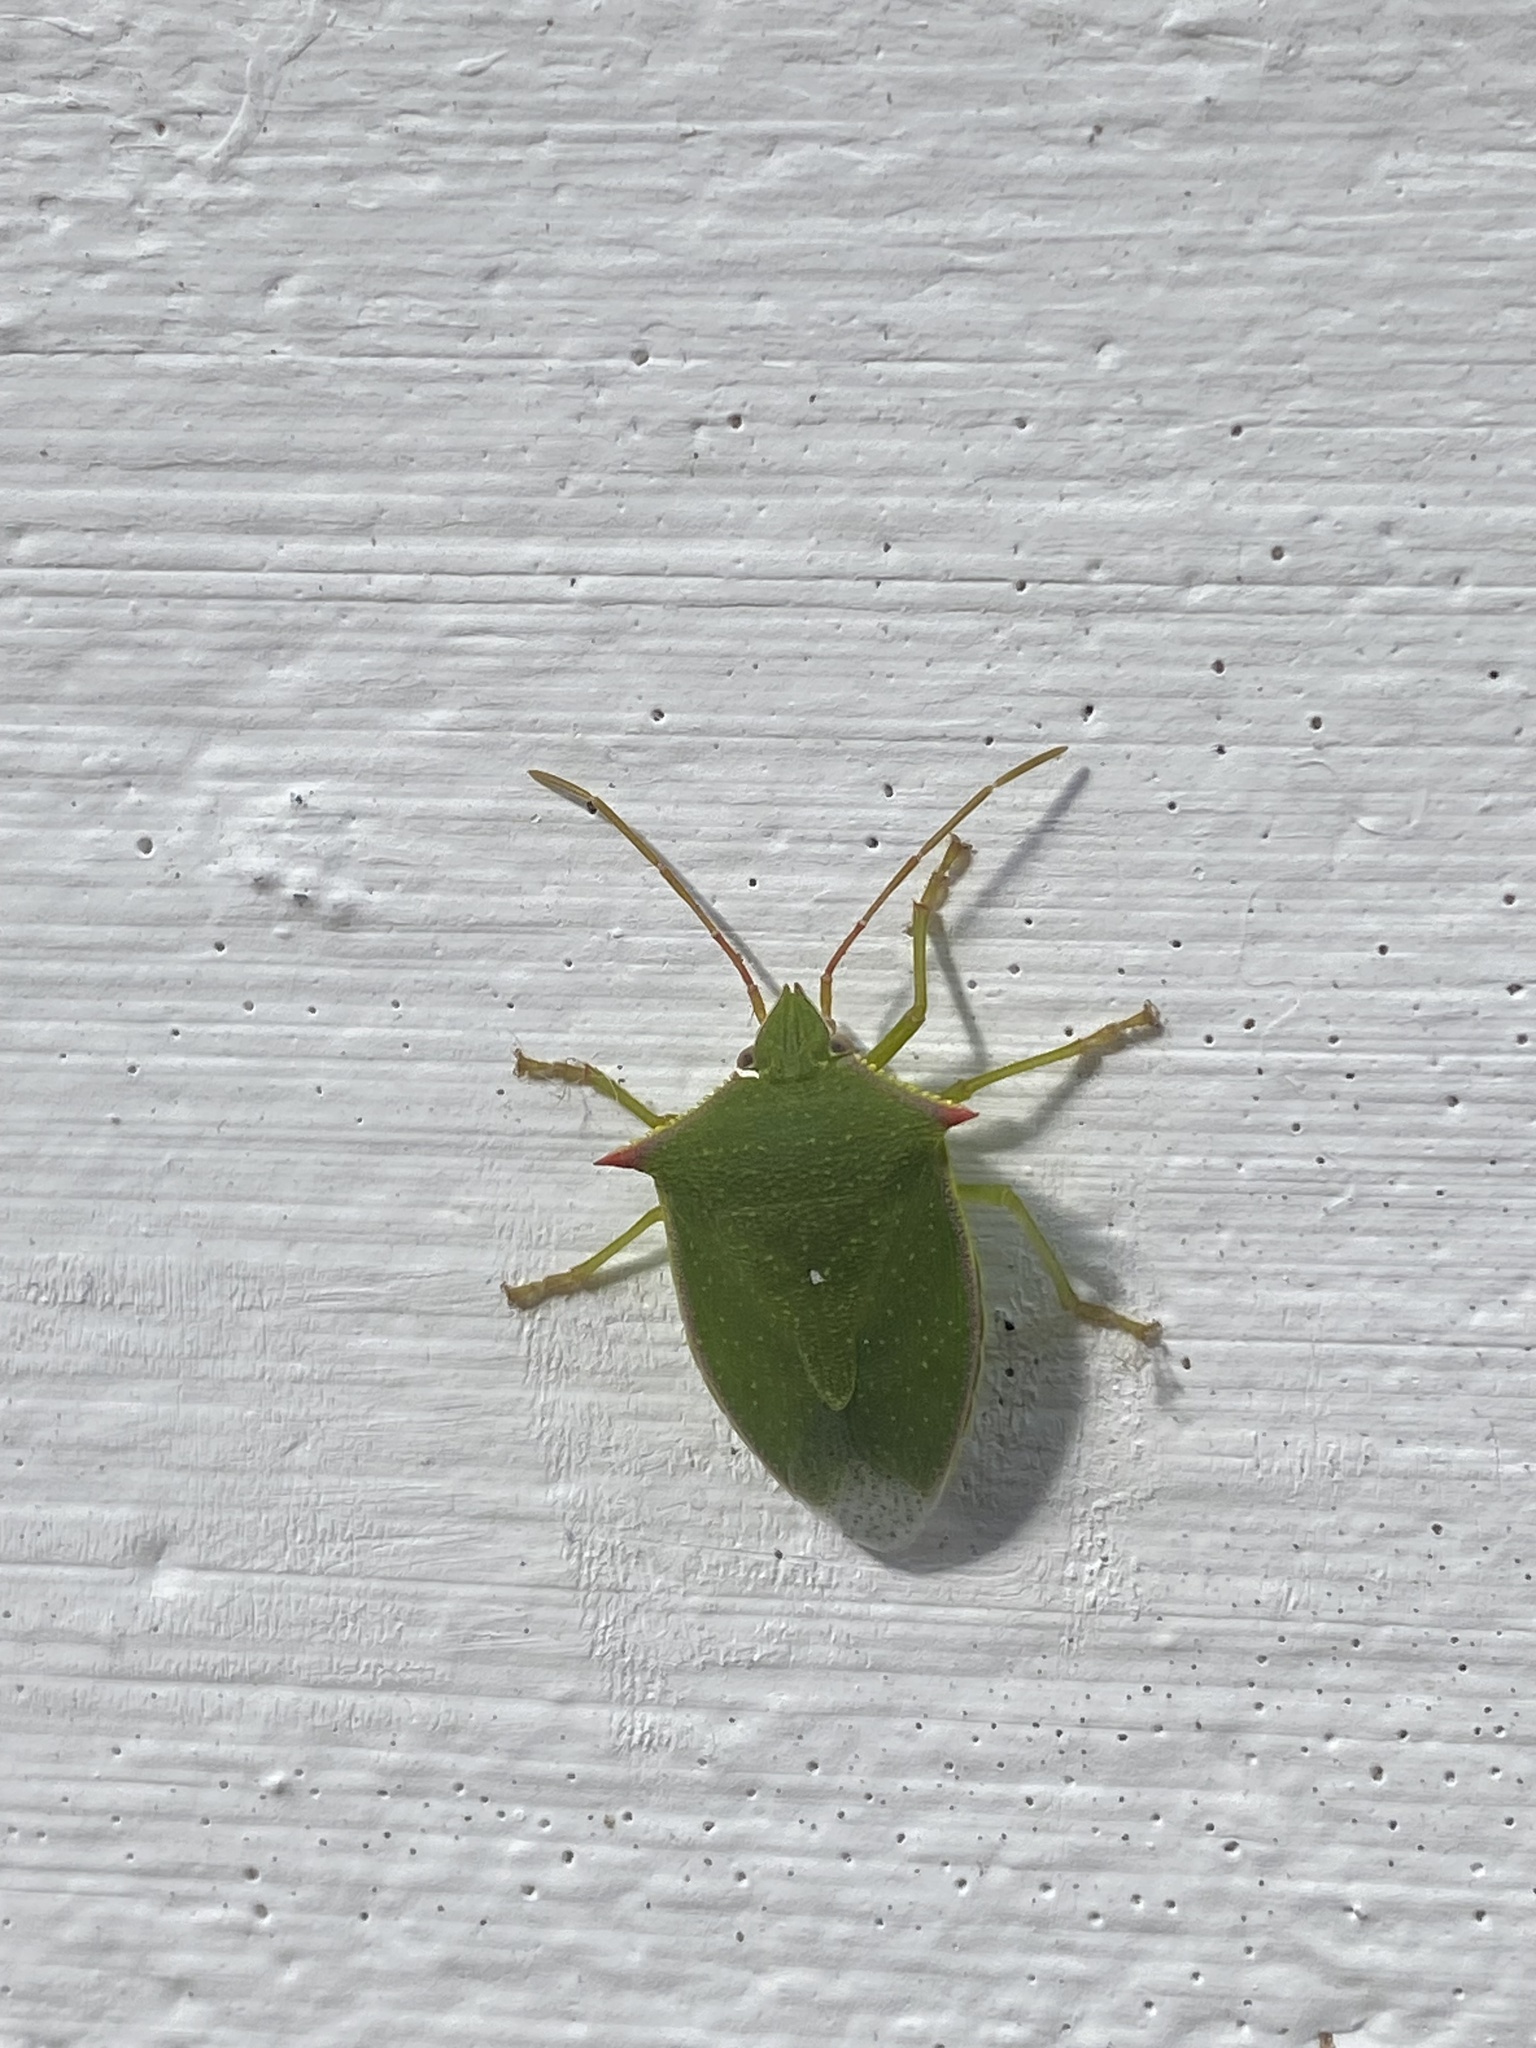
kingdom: Animalia
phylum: Arthropoda
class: Insecta
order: Hemiptera
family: Pentatomidae
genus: Loxa
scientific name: Loxa deducta
